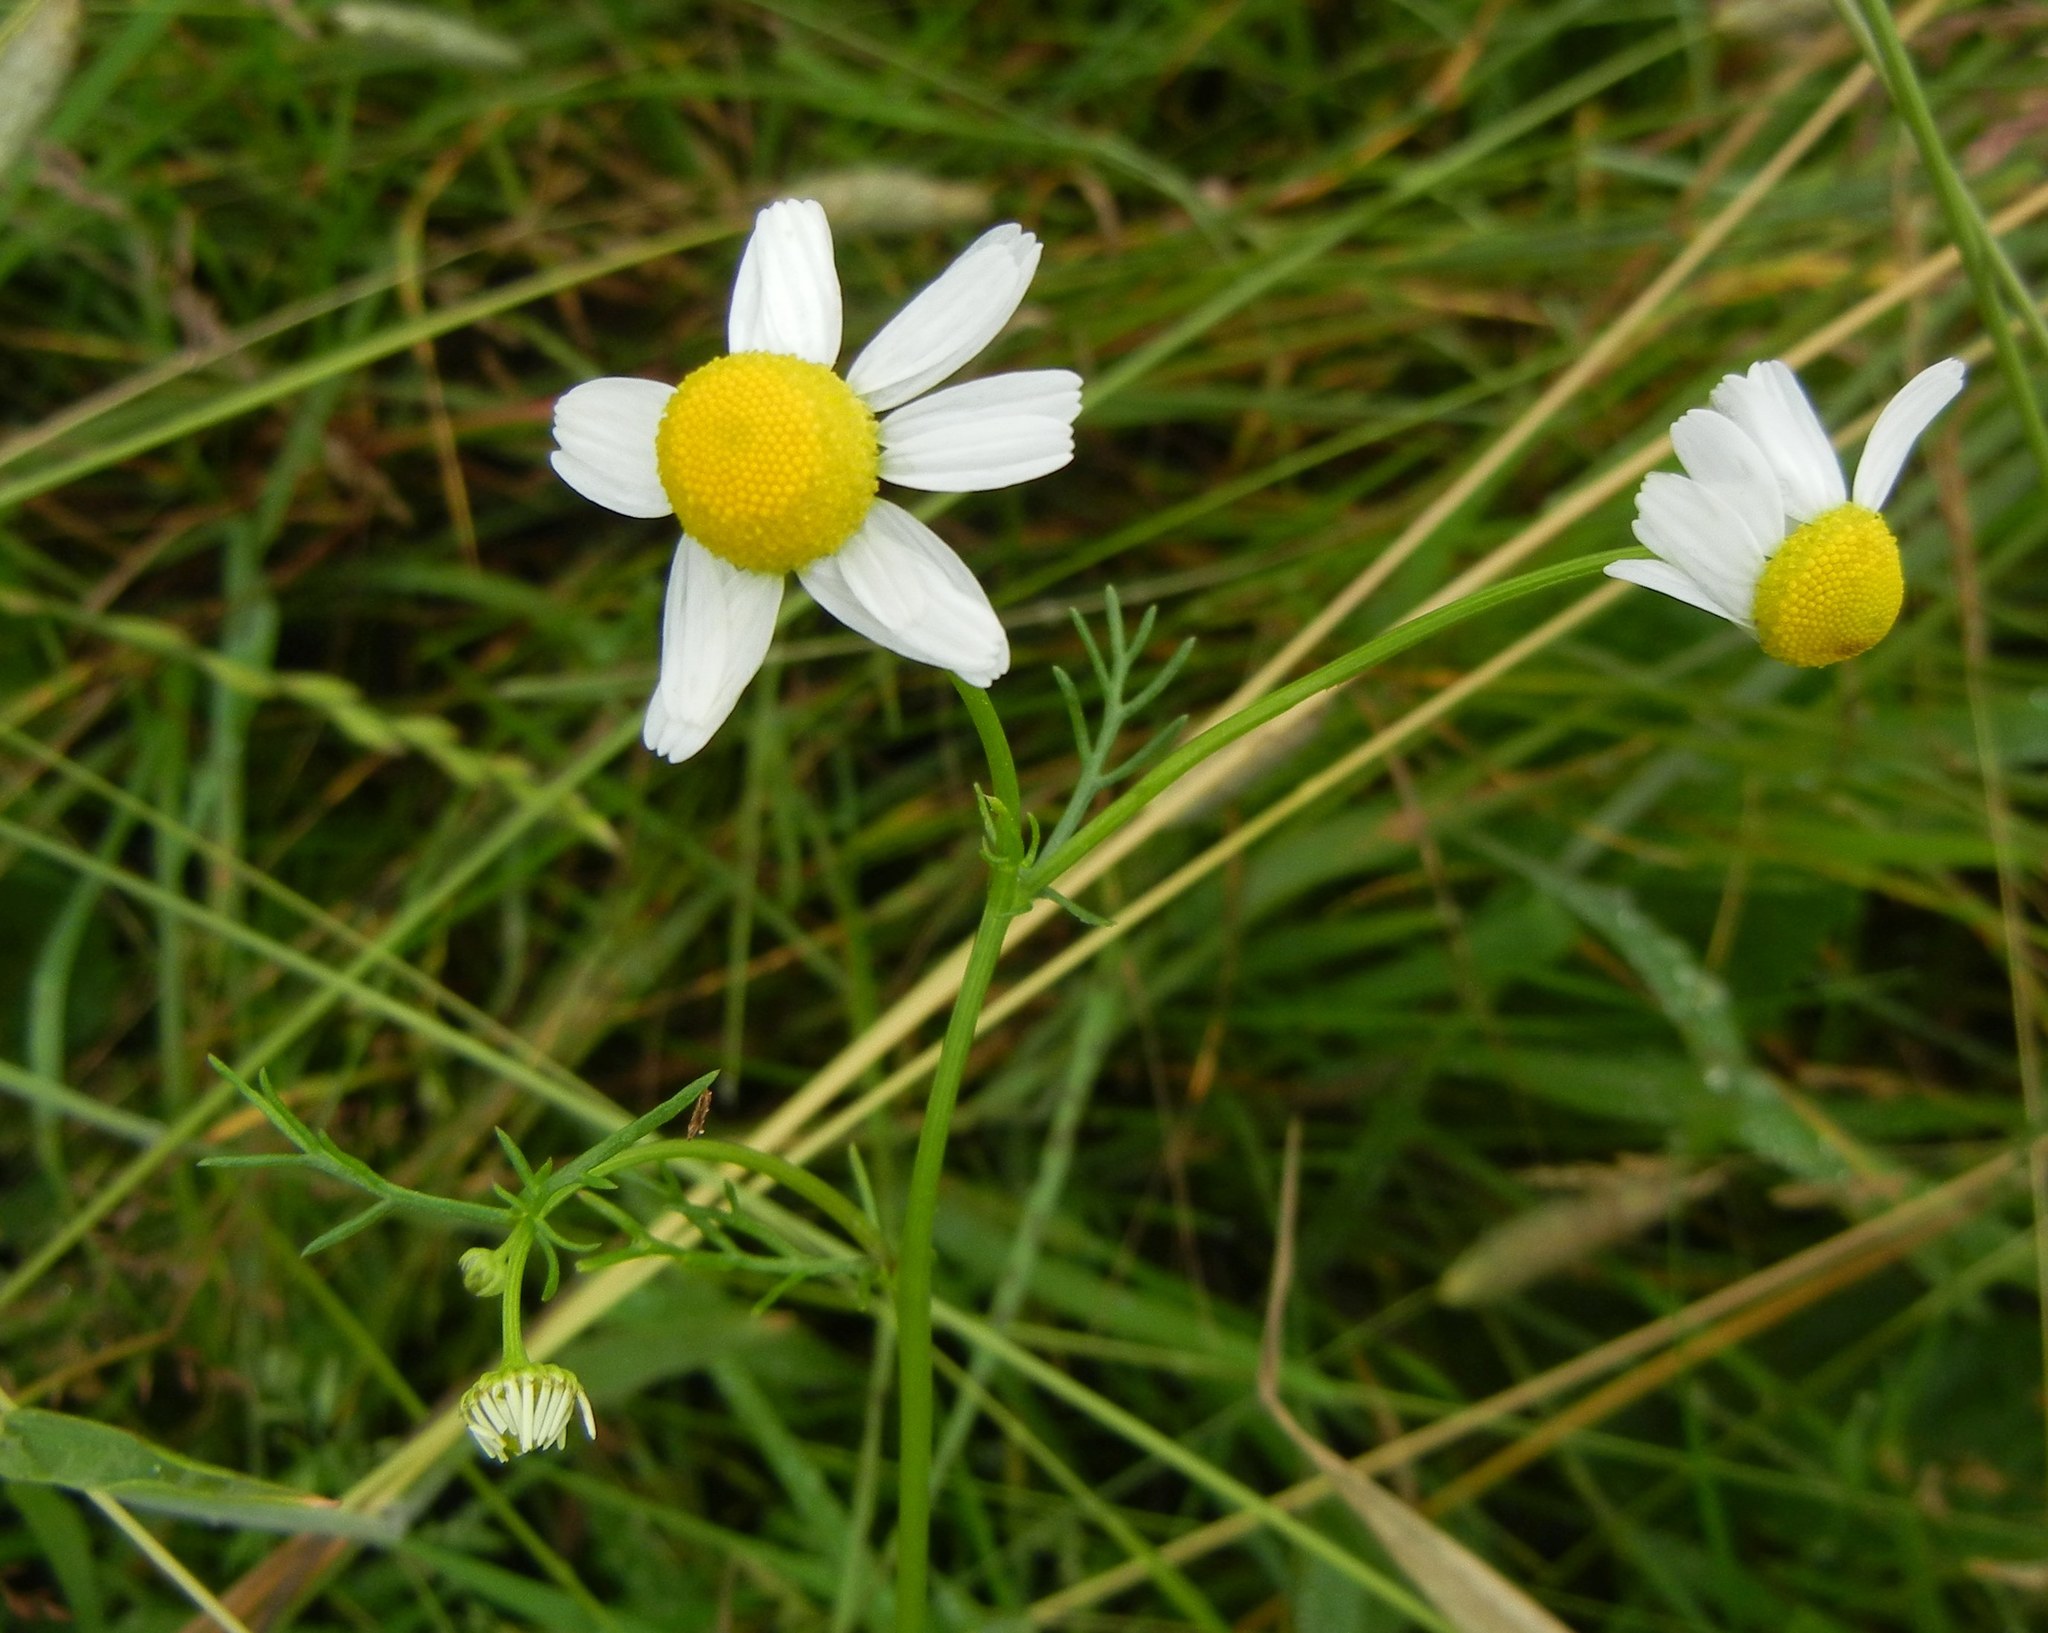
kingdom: Plantae
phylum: Tracheophyta
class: Magnoliopsida
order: Asterales
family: Asteraceae
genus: Matricaria
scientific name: Matricaria chamomilla
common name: Scented mayweed
